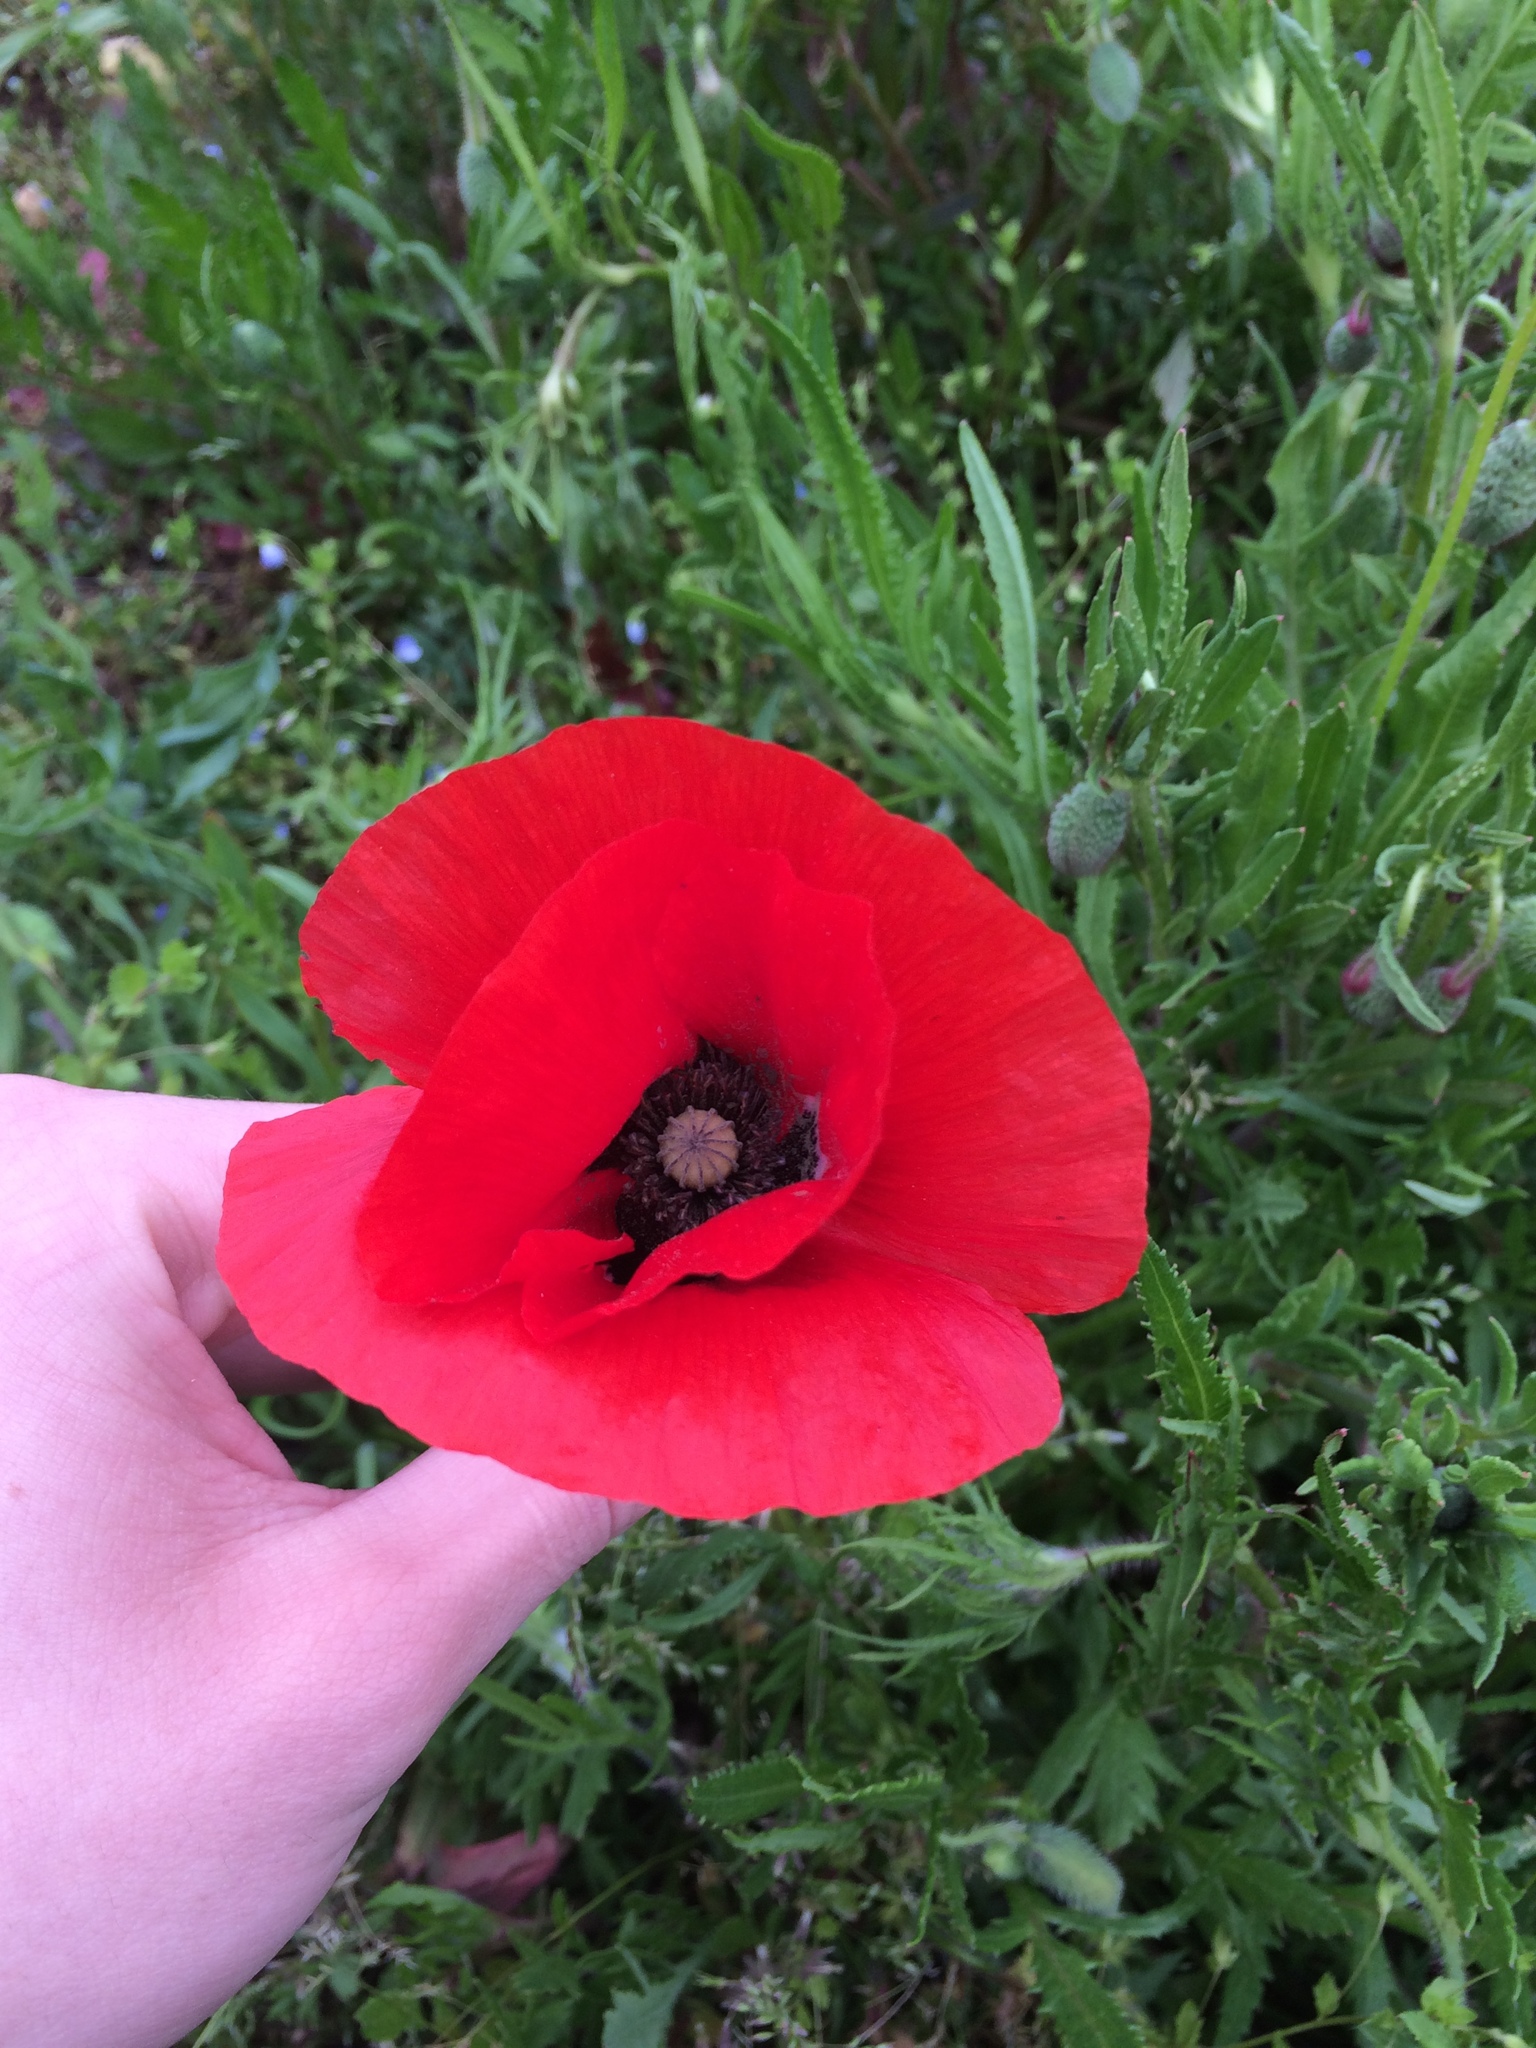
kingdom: Plantae
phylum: Tracheophyta
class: Magnoliopsida
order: Ranunculales
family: Papaveraceae
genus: Papaver
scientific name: Papaver rhoeas
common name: Corn poppy
